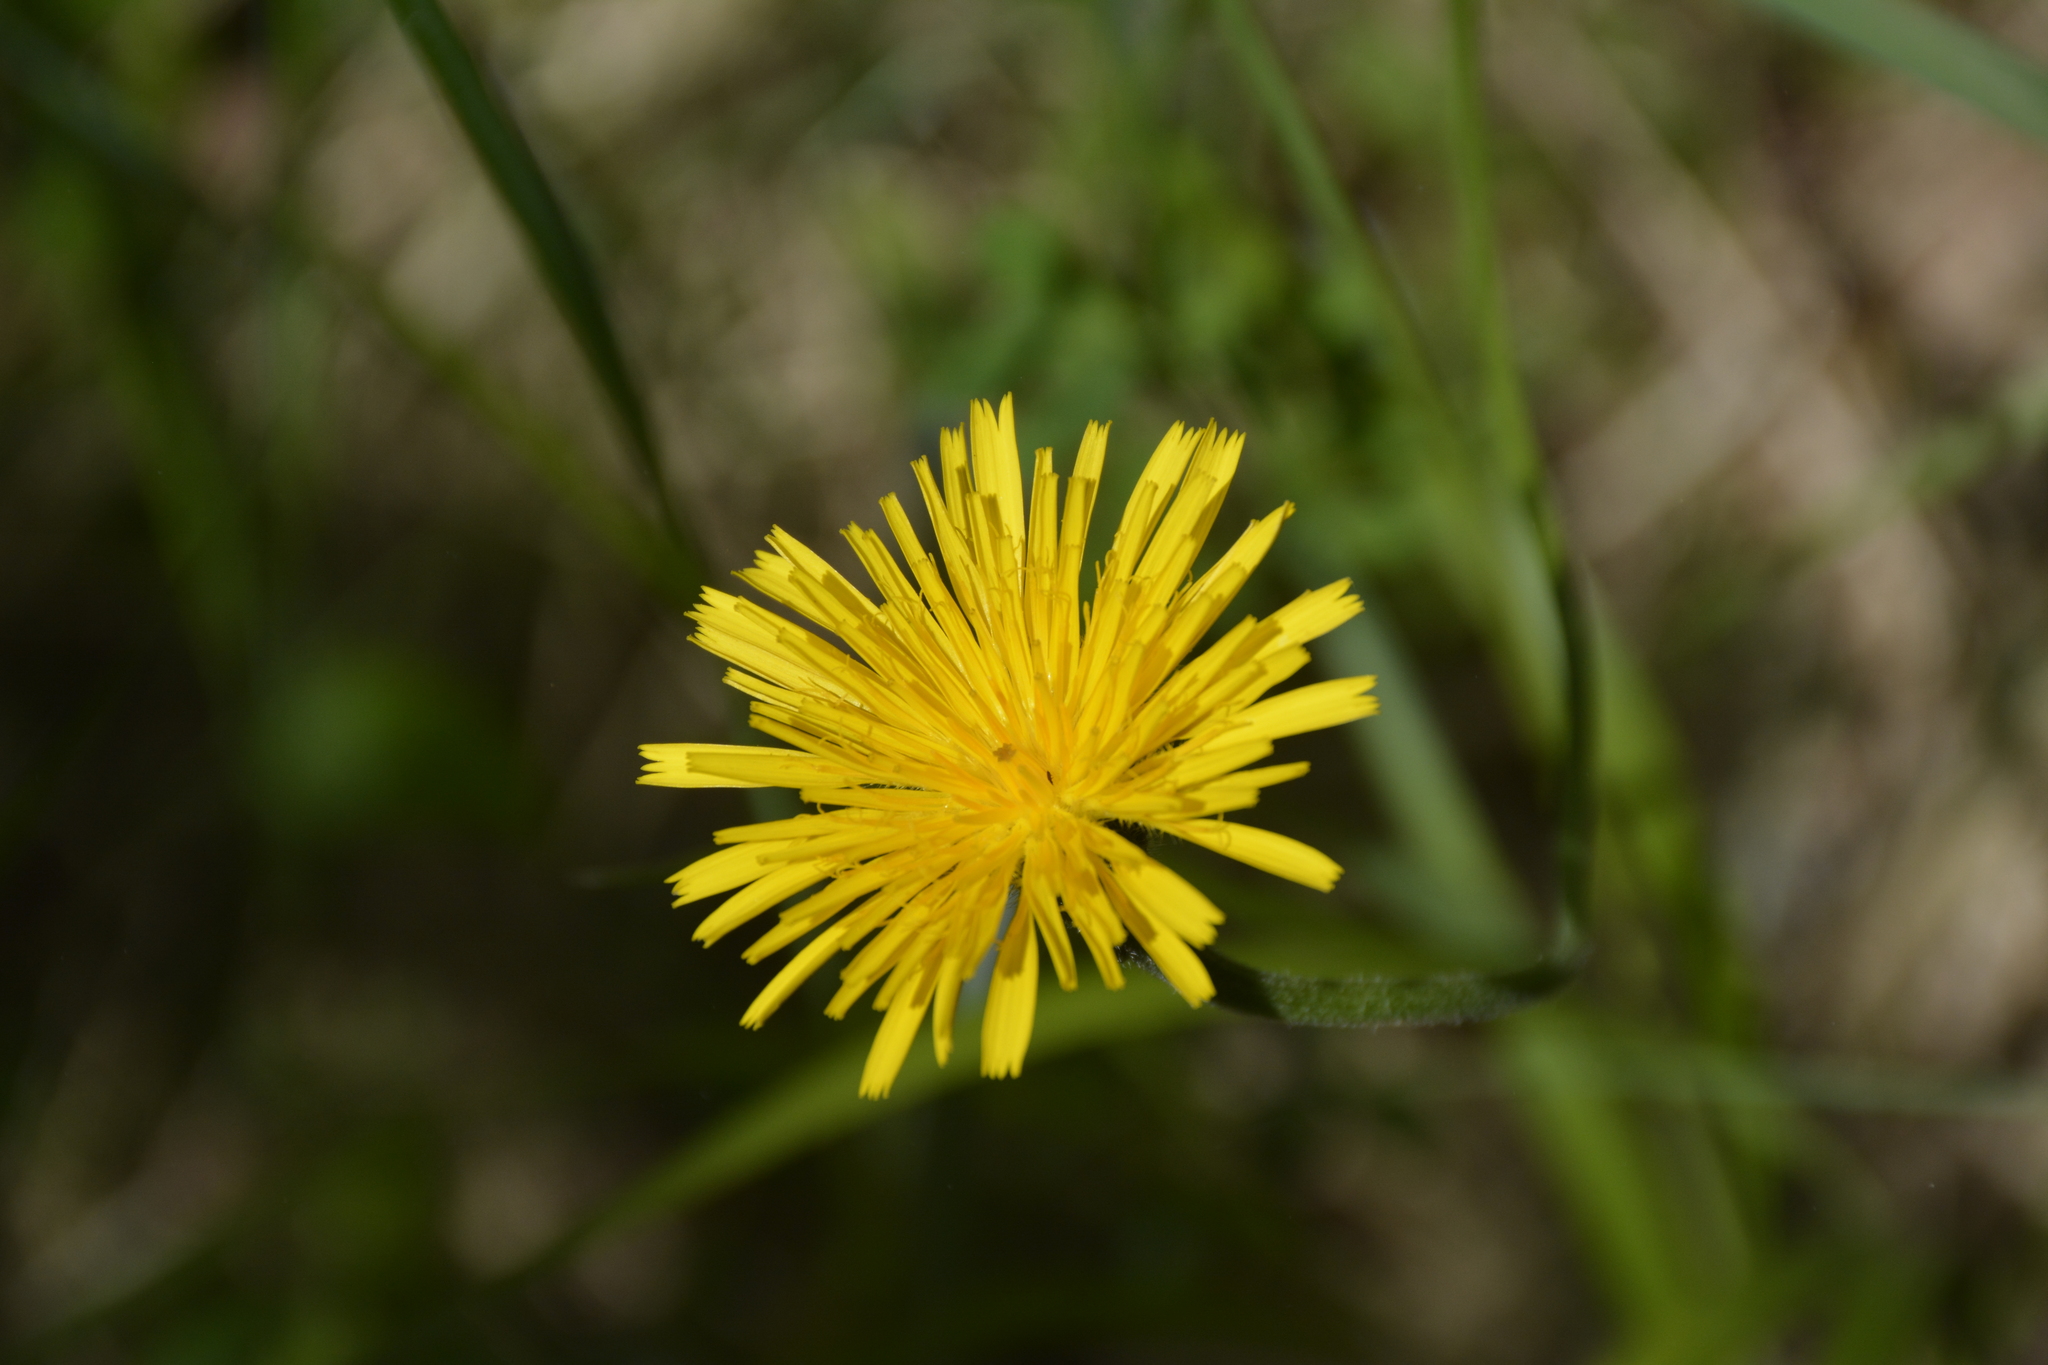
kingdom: Plantae
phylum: Tracheophyta
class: Magnoliopsida
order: Asterales
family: Asteraceae
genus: Trommsdorffia
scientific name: Trommsdorffia maculata
